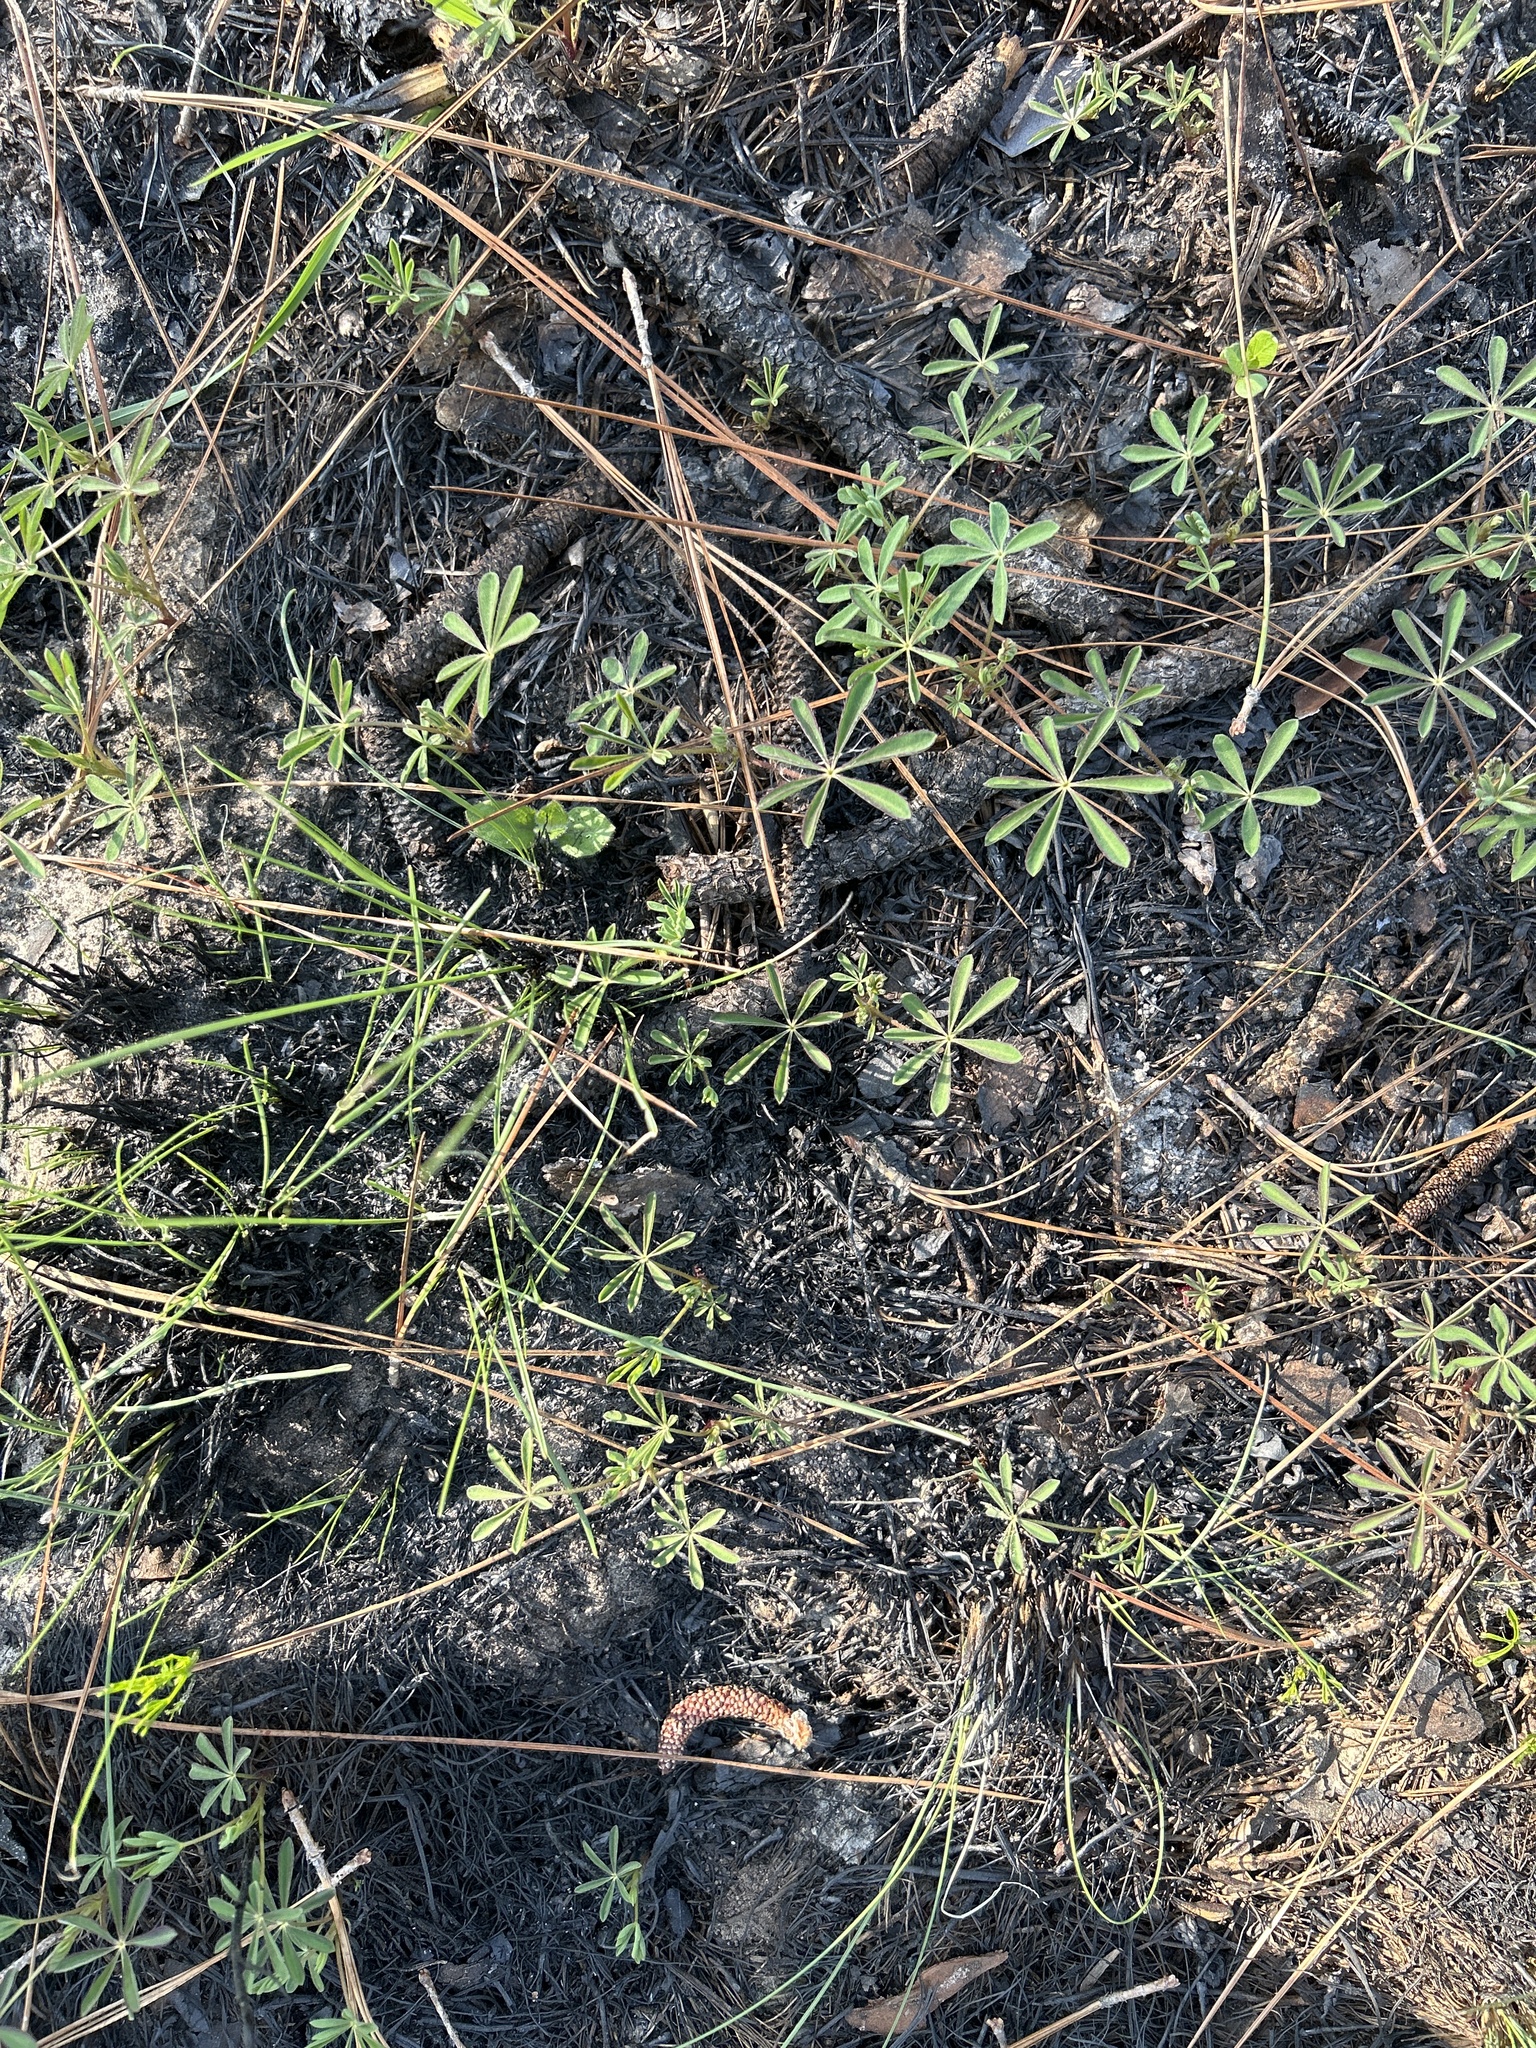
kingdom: Plantae
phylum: Tracheophyta
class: Magnoliopsida
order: Fabales
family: Fabaceae
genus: Lupinus
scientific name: Lupinus perennis
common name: Sundial lupine
